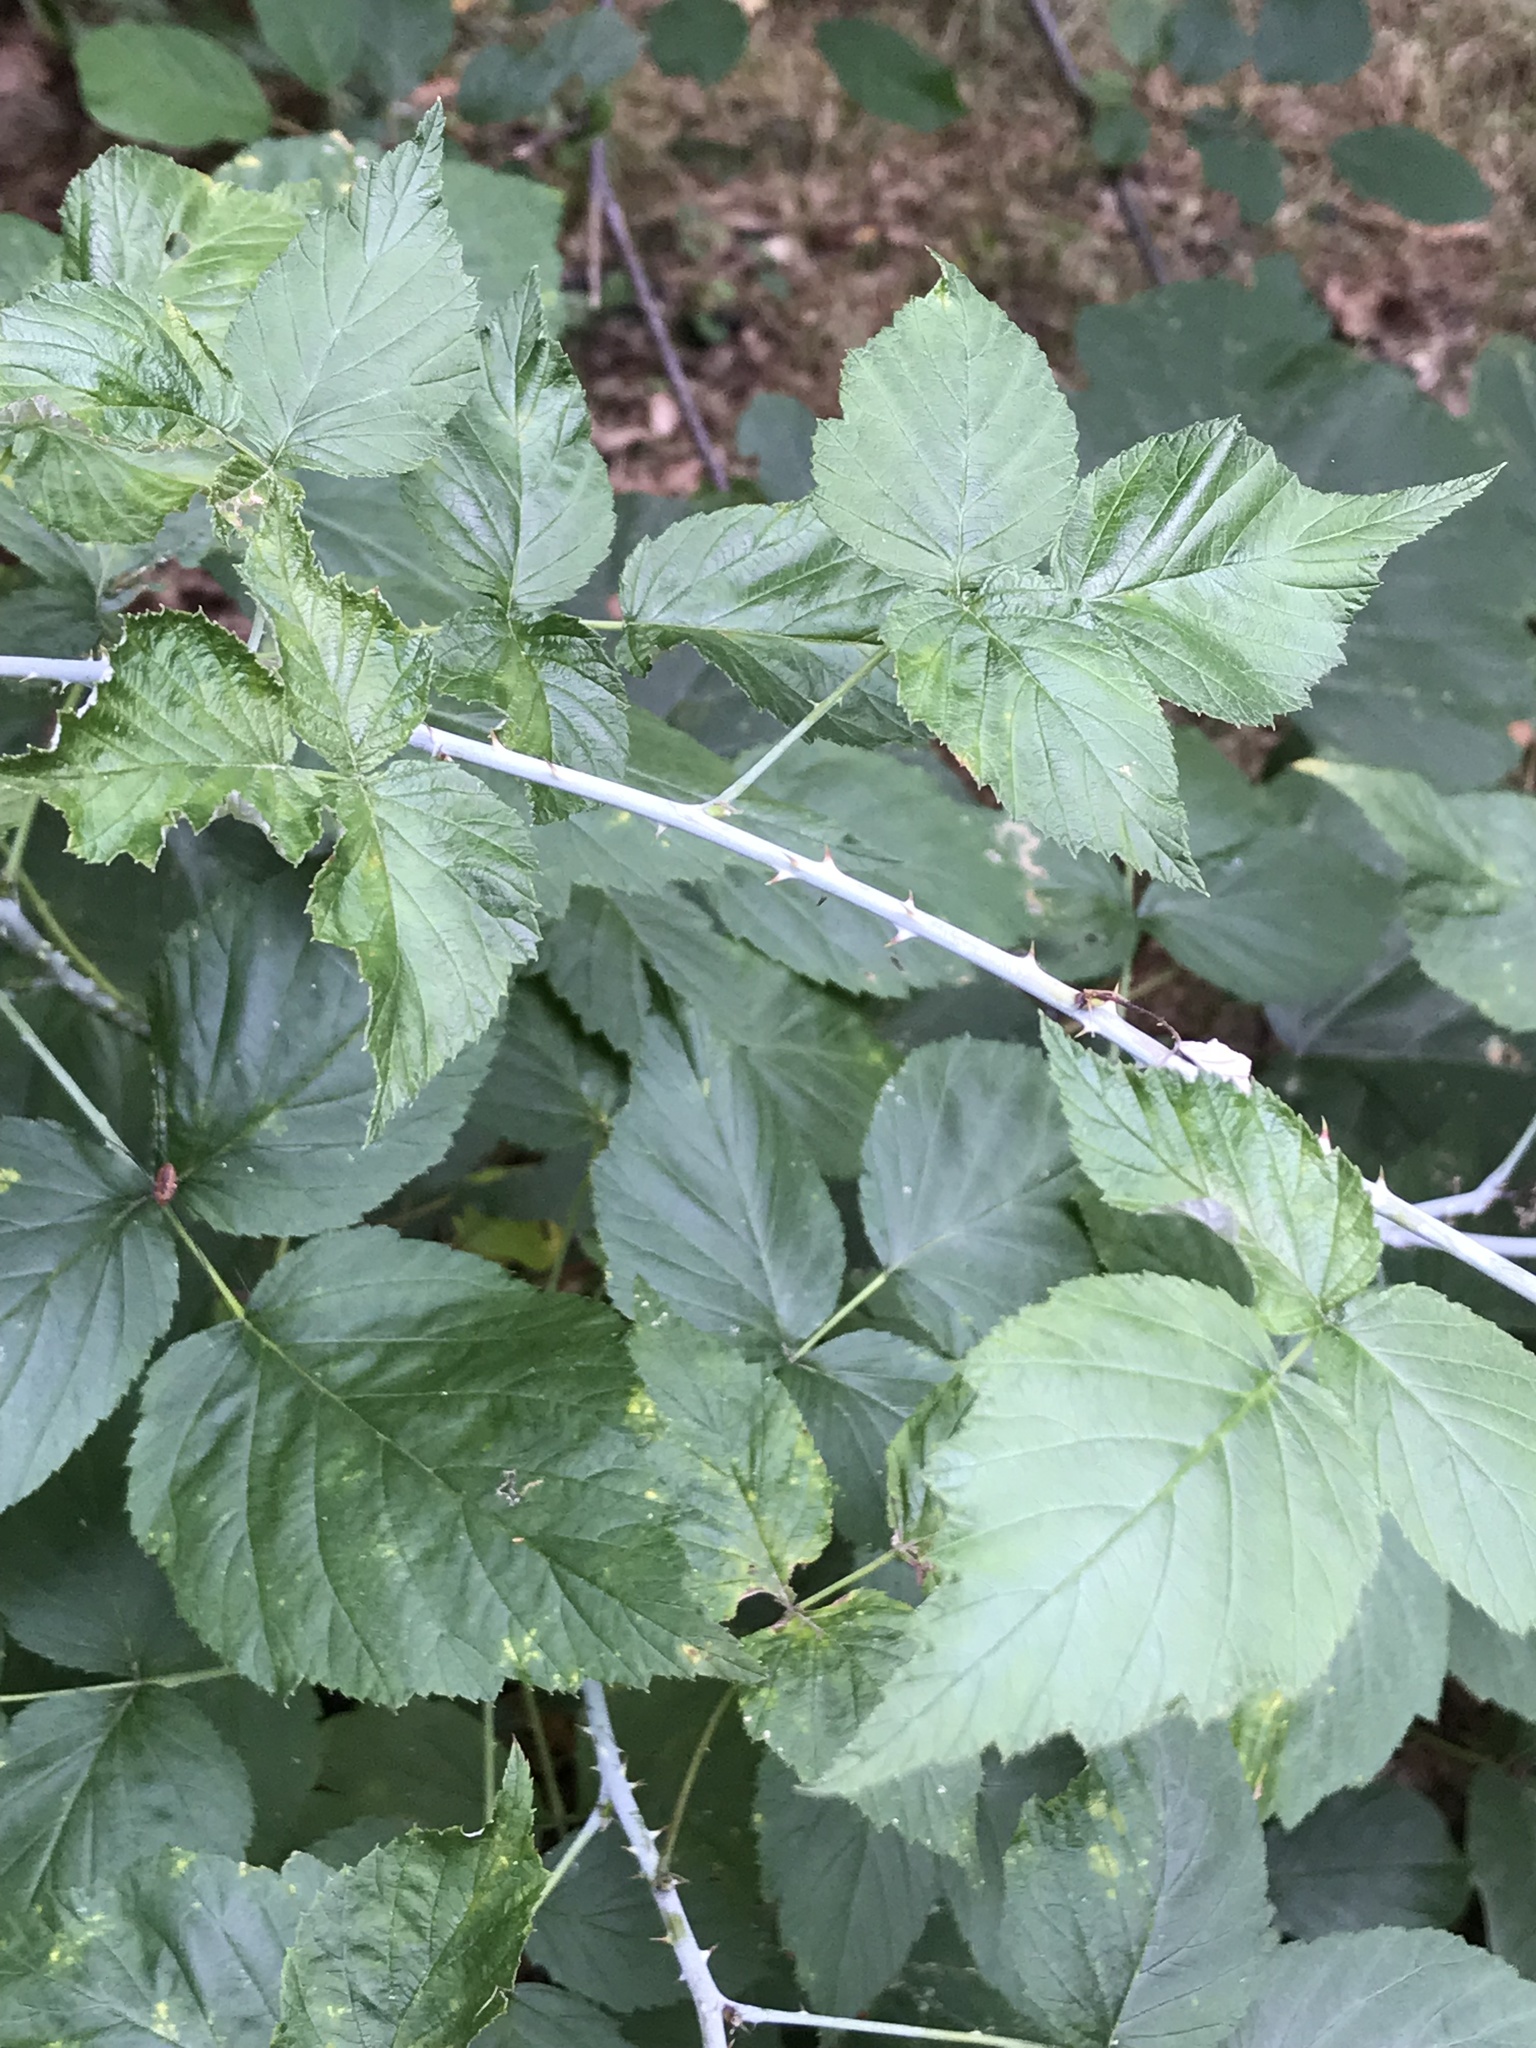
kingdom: Plantae
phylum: Tracheophyta
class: Magnoliopsida
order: Rosales
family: Rosaceae
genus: Rubus
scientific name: Rubus occidentalis
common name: Black raspberry
